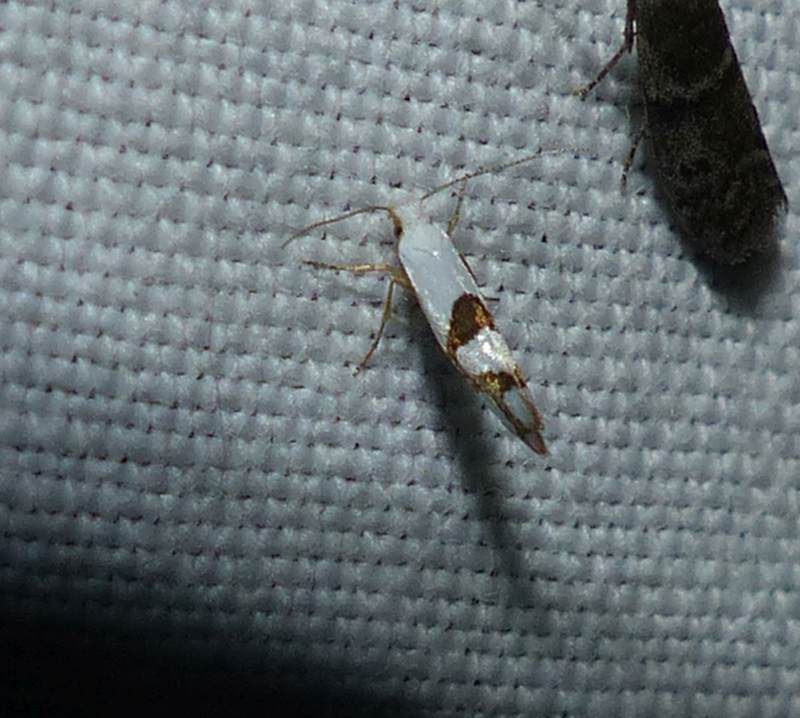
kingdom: Animalia
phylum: Arthropoda
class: Insecta
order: Lepidoptera
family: Argyresthiidae
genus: Argyresthia
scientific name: Argyresthia oreasella
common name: Cherry shoot borer moth
